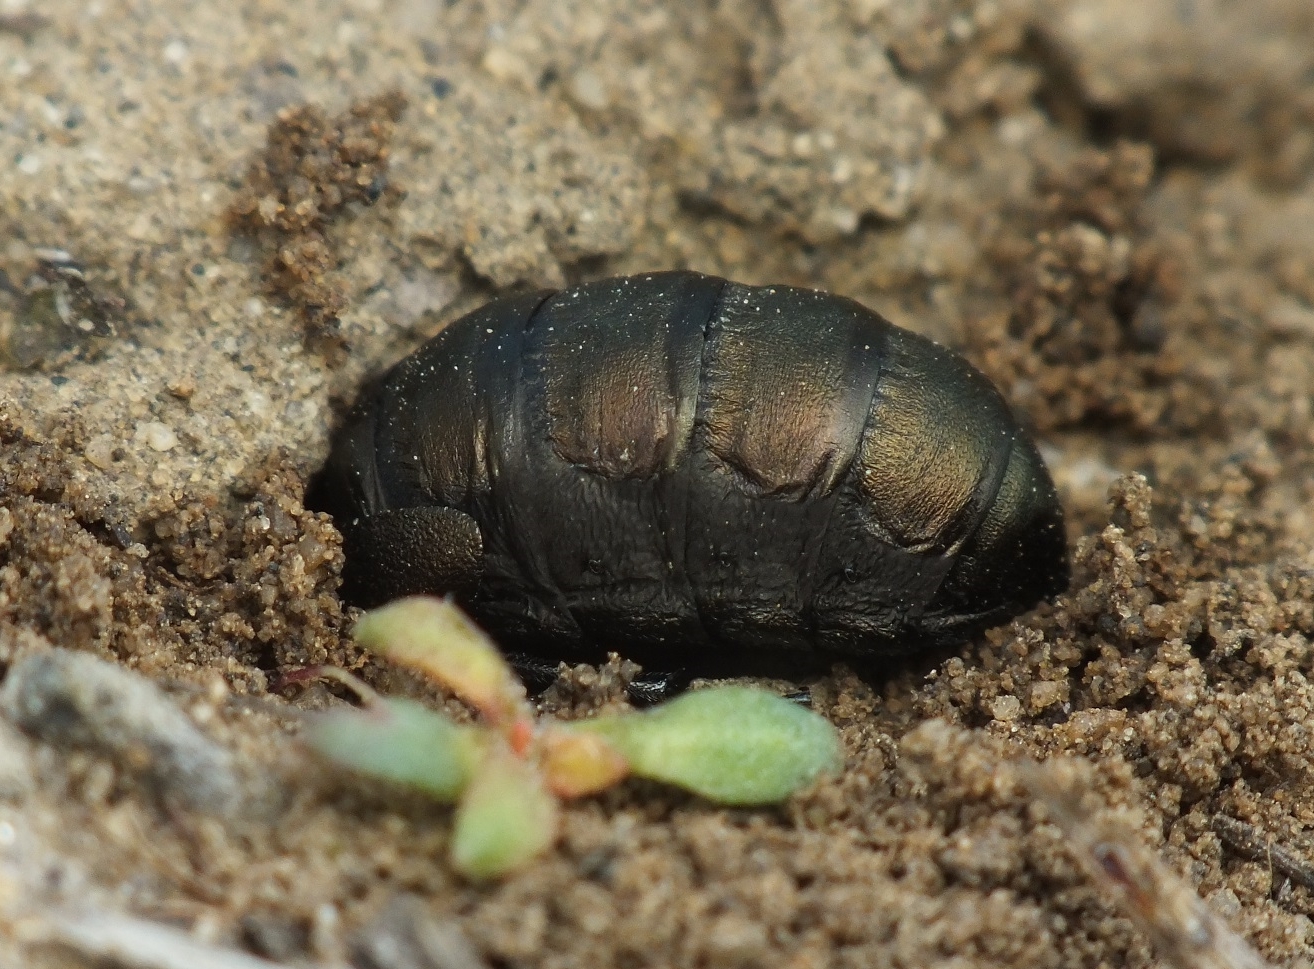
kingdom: Animalia
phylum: Arthropoda
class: Insecta
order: Coleoptera
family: Meloidae
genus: Meloe
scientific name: Meloe aeneus
